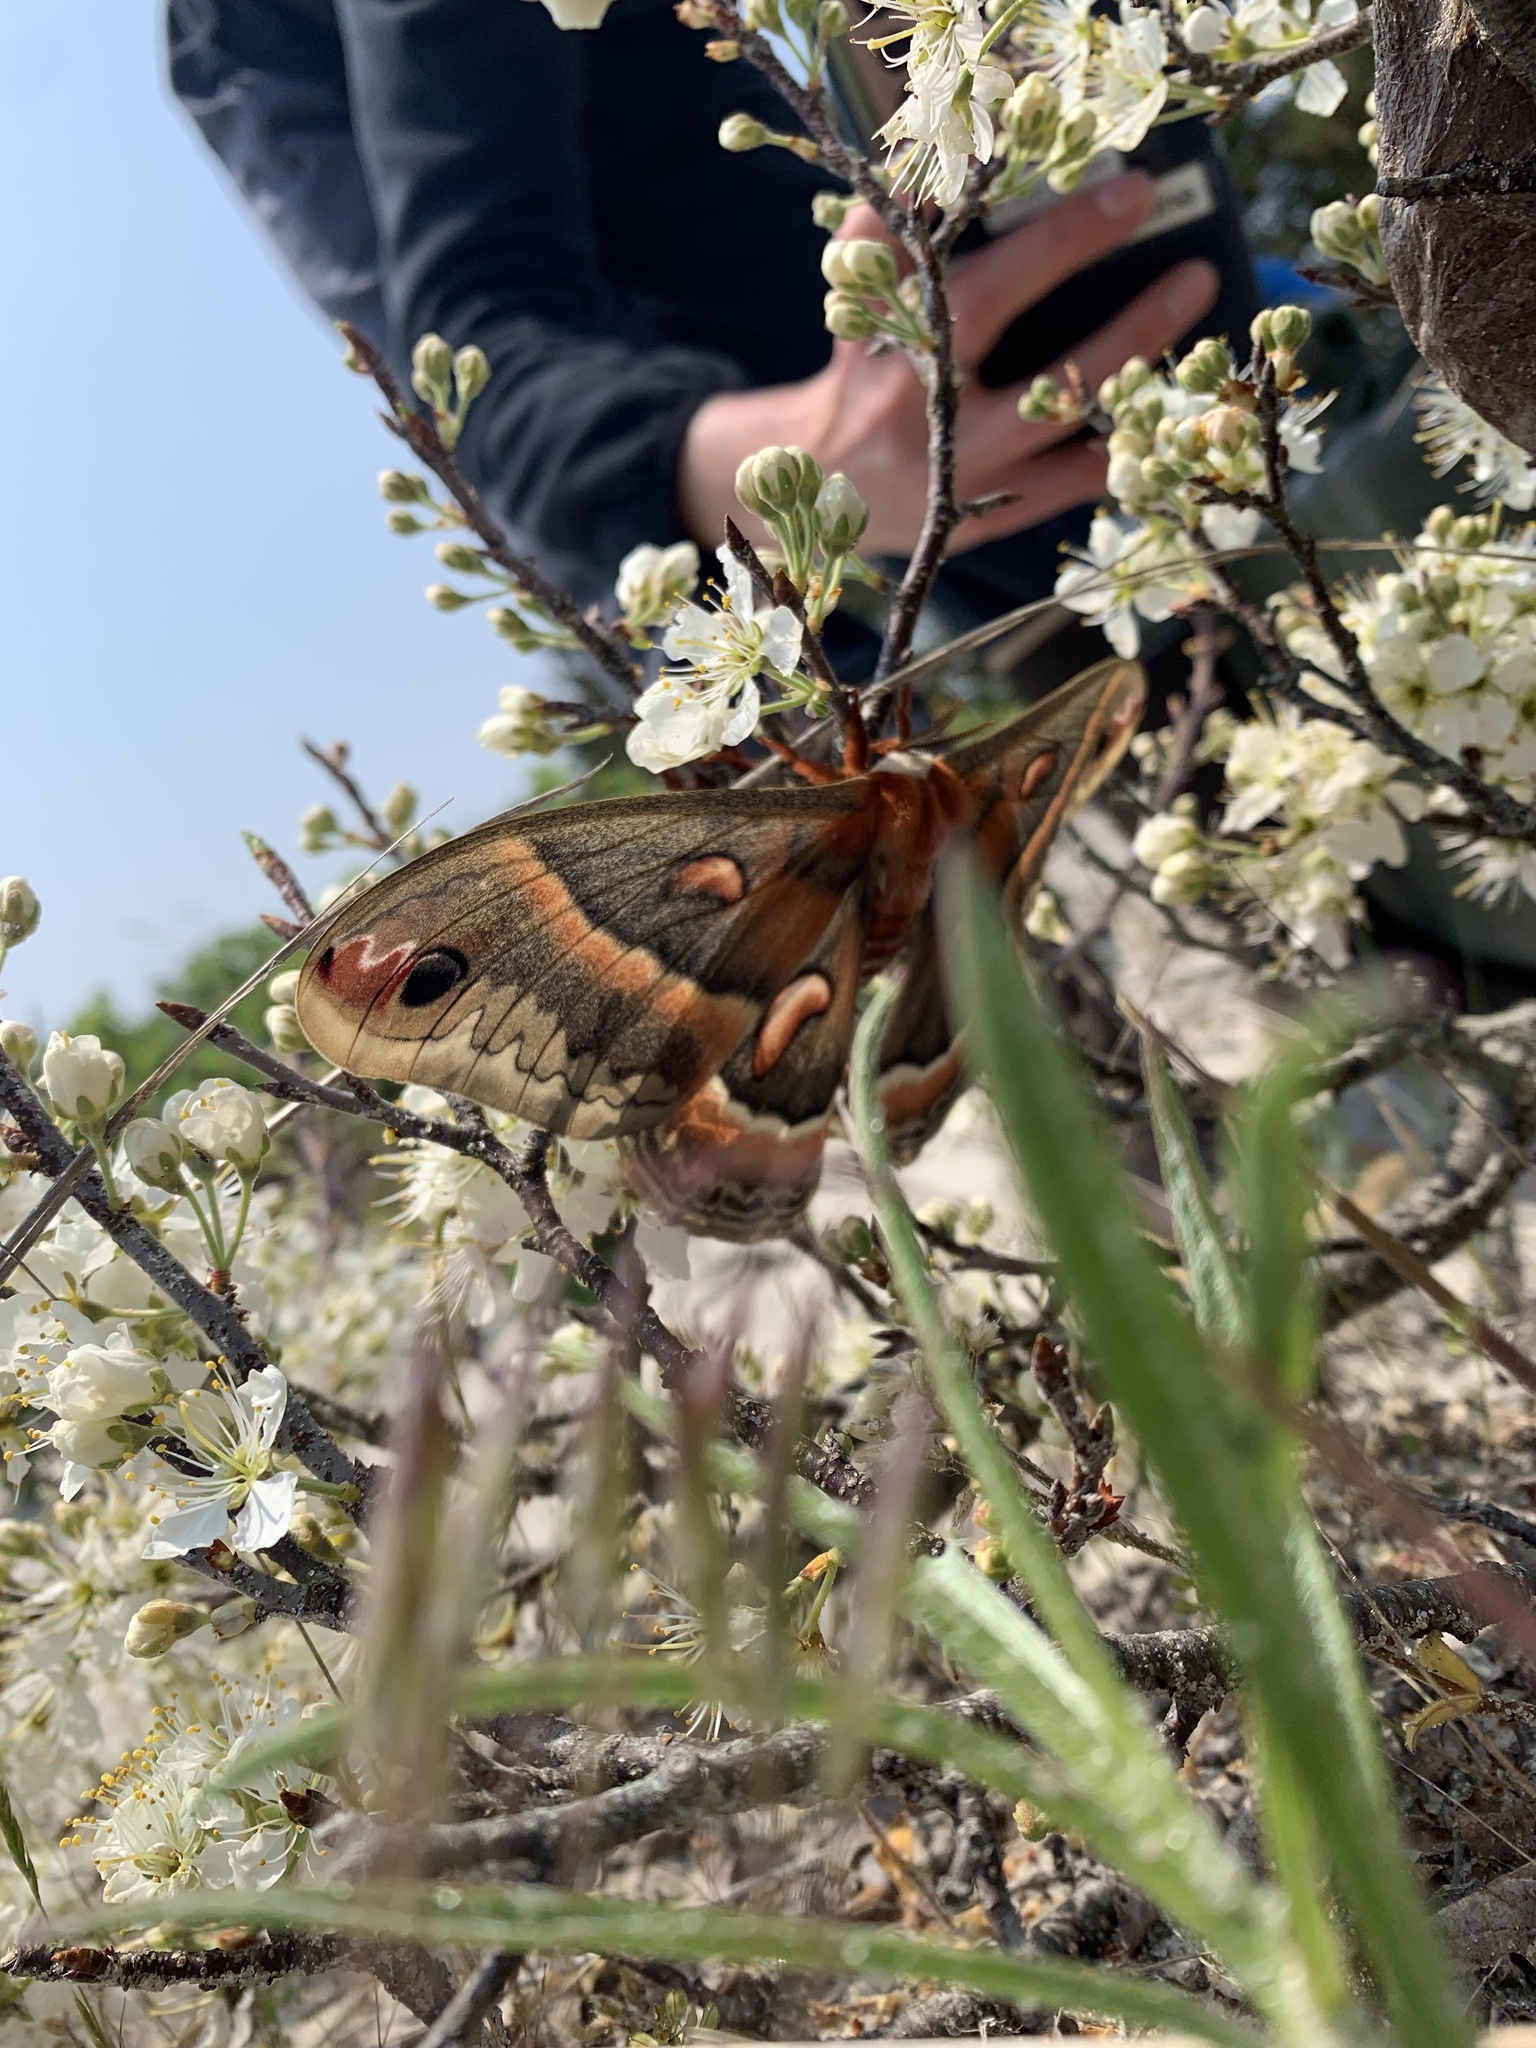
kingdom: Animalia
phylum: Arthropoda
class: Insecta
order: Lepidoptera
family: Saturniidae
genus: Hyalophora
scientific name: Hyalophora cecropia
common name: Cecropia silkmoth
